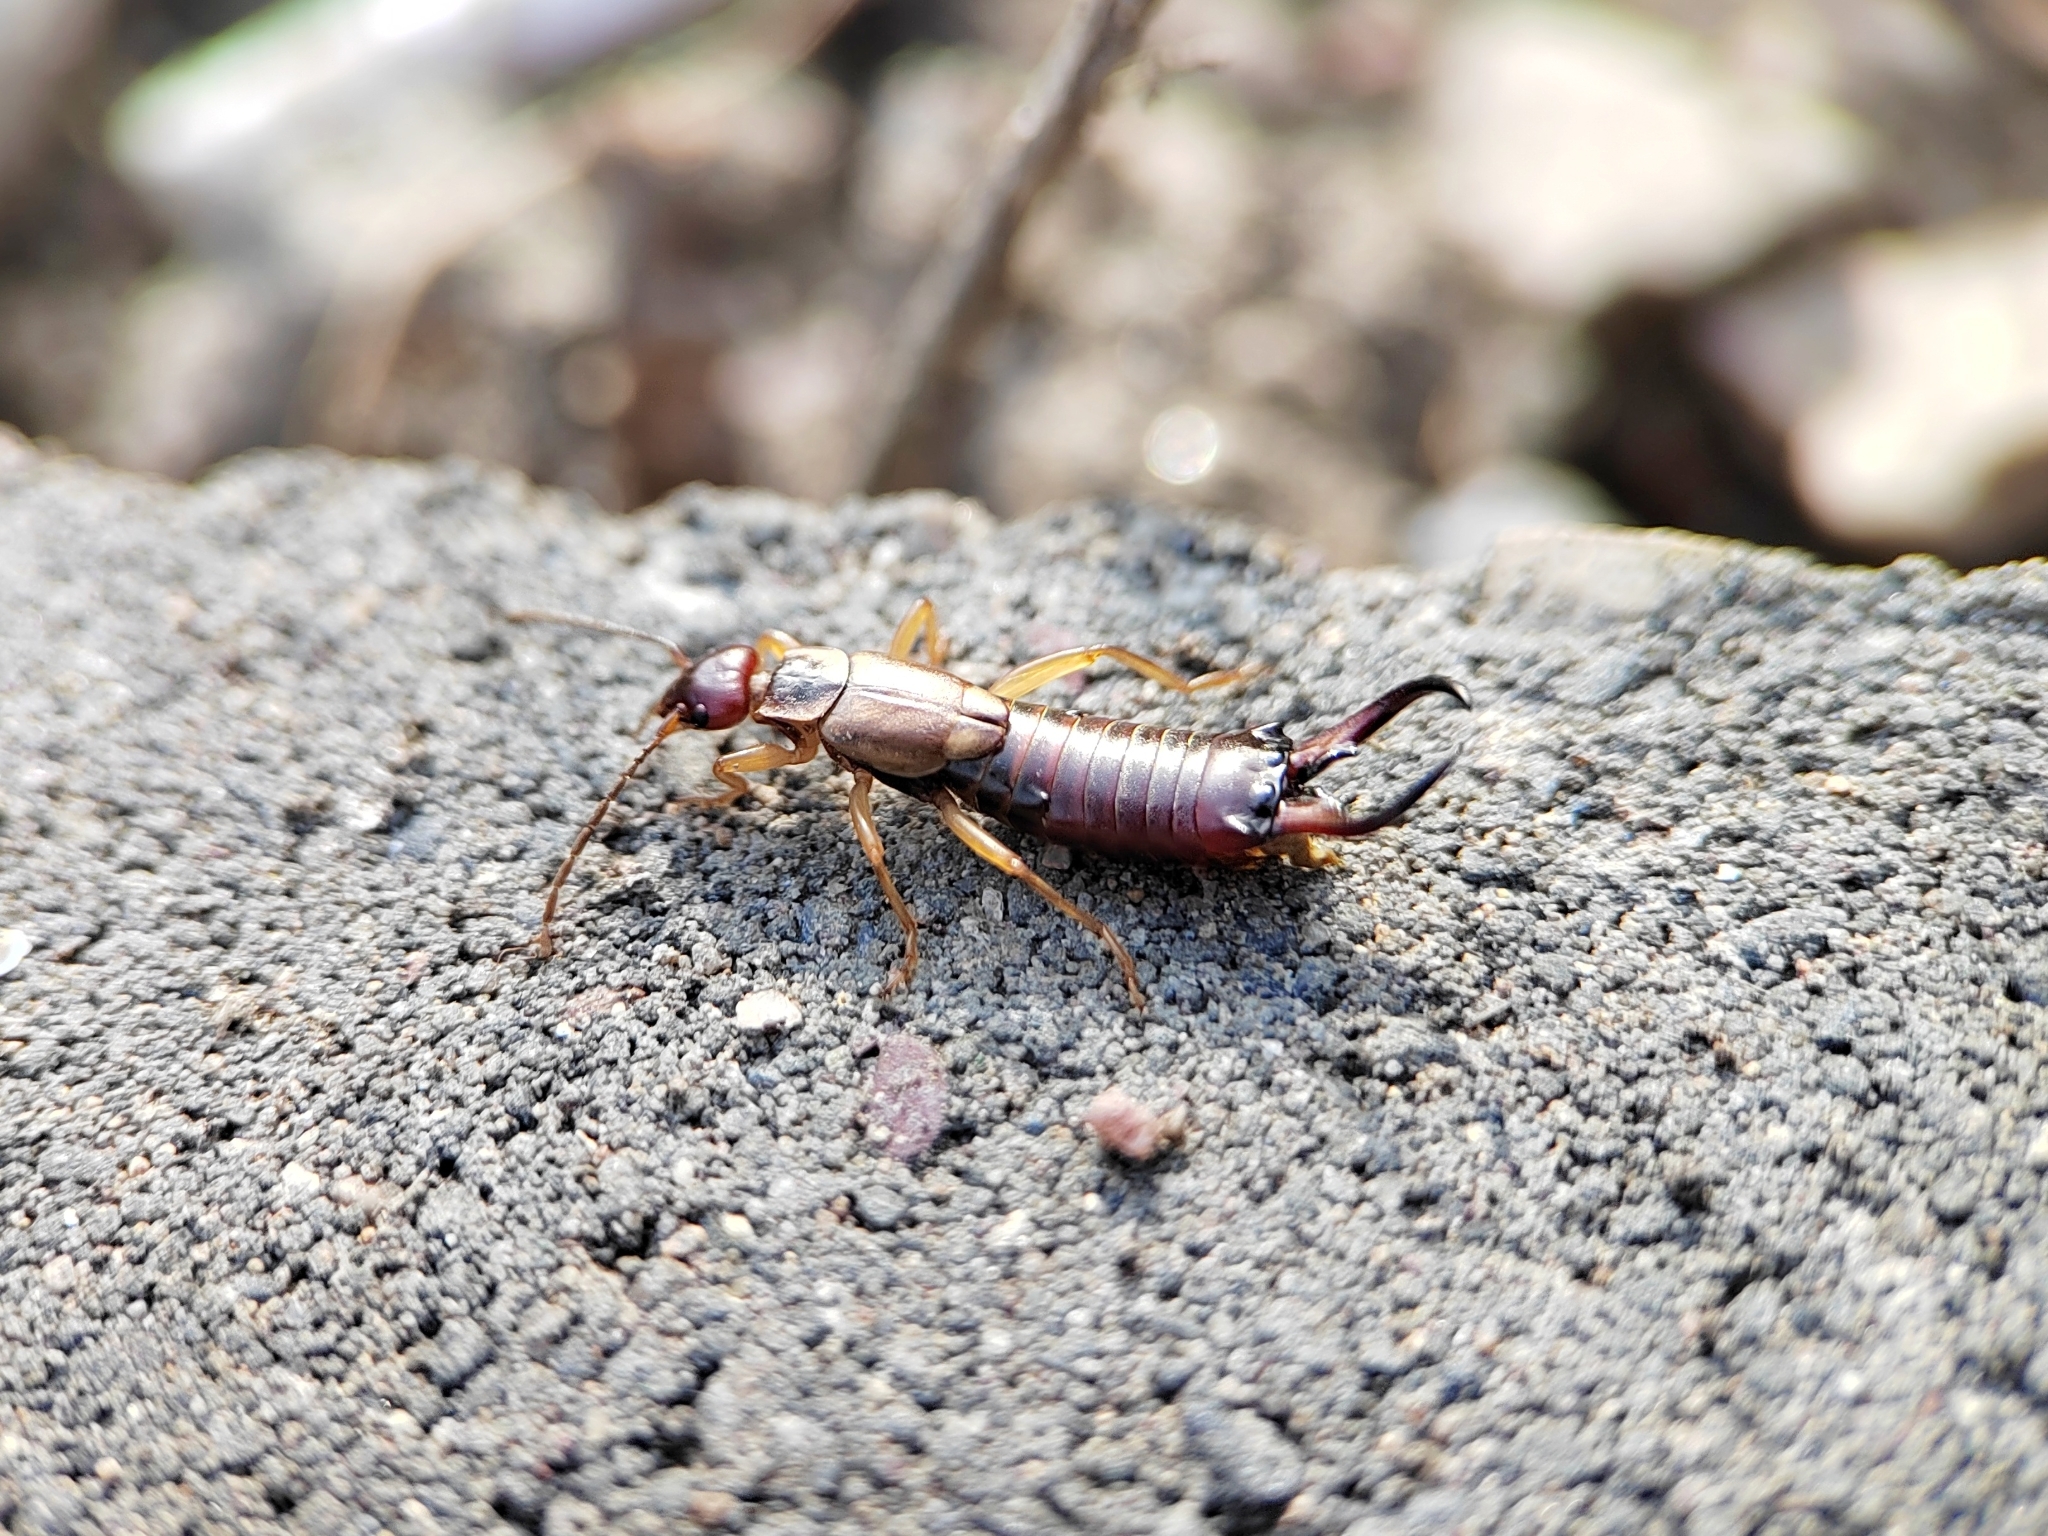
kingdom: Animalia
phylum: Arthropoda
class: Insecta
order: Dermaptera
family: Forficulidae
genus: Forficula
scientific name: Forficula auricularia
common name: European earwig
